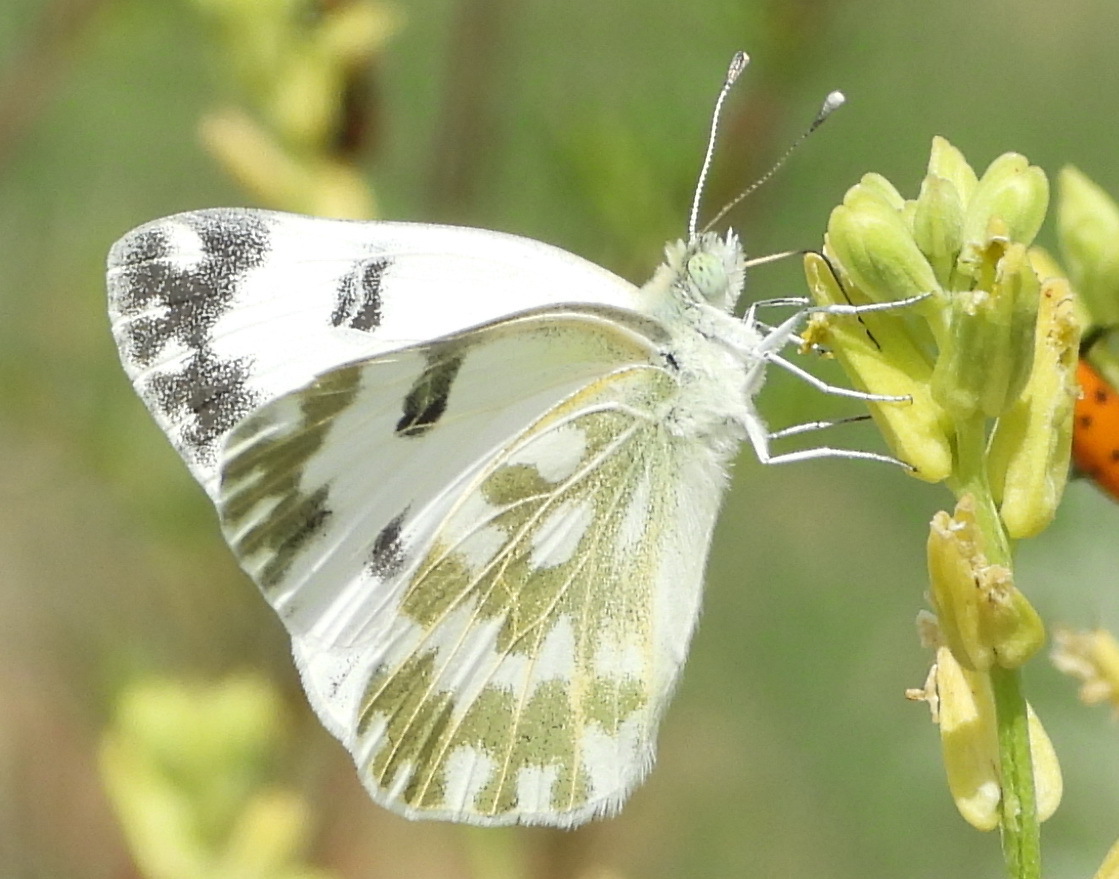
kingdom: Animalia
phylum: Arthropoda
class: Insecta
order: Lepidoptera
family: Pieridae
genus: Pontia
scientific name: Pontia edusa
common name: Eastern bath white
